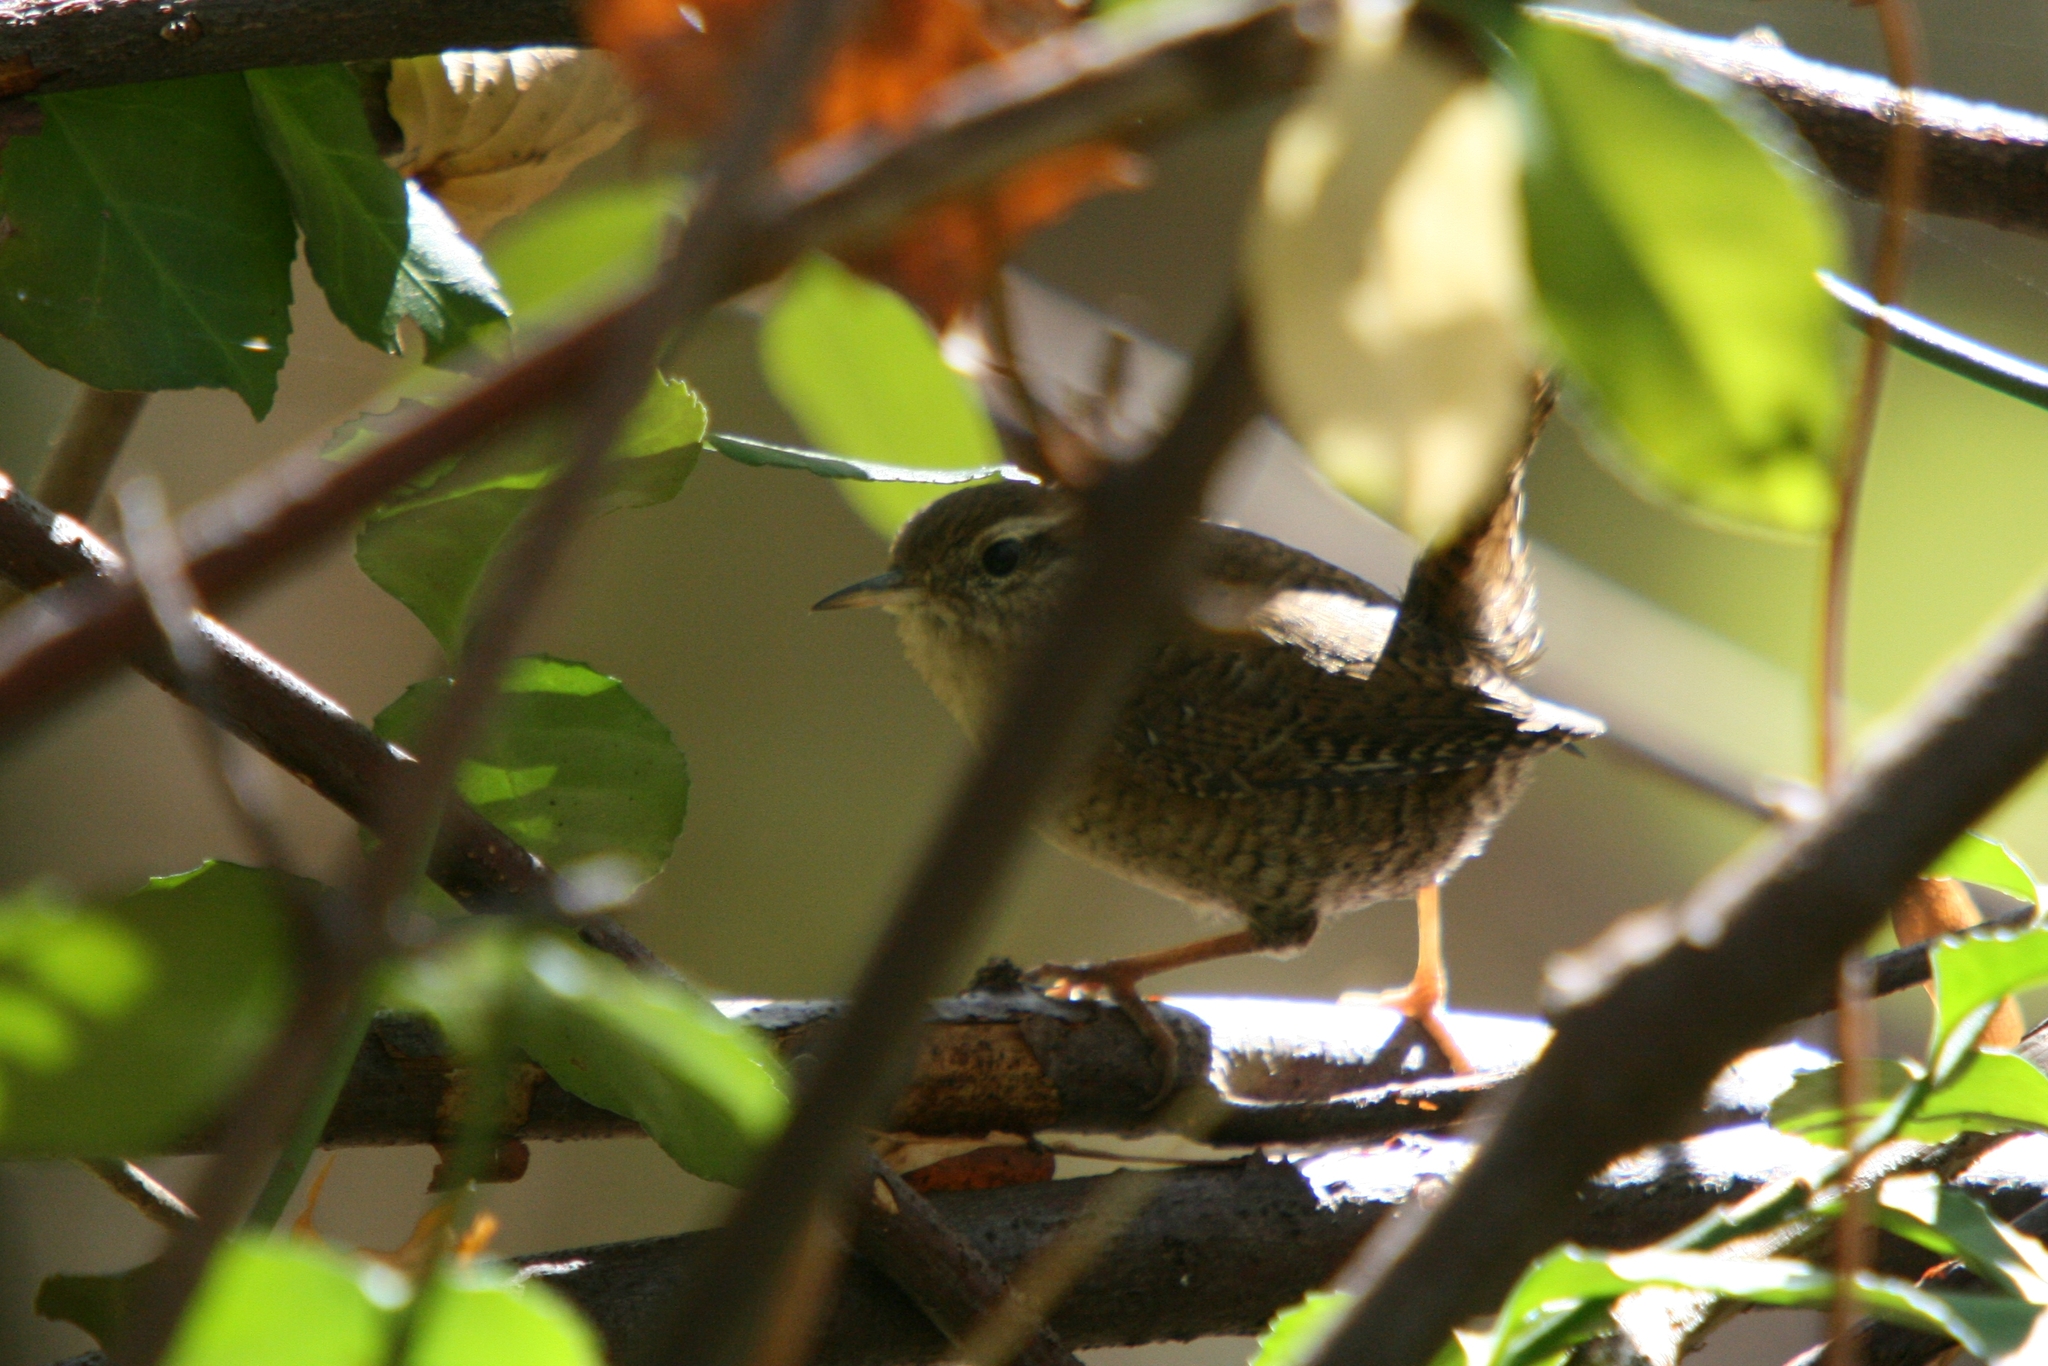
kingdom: Animalia
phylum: Chordata
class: Aves
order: Passeriformes
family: Troglodytidae
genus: Troglodytes
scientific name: Troglodytes troglodytes
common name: Eurasian wren
